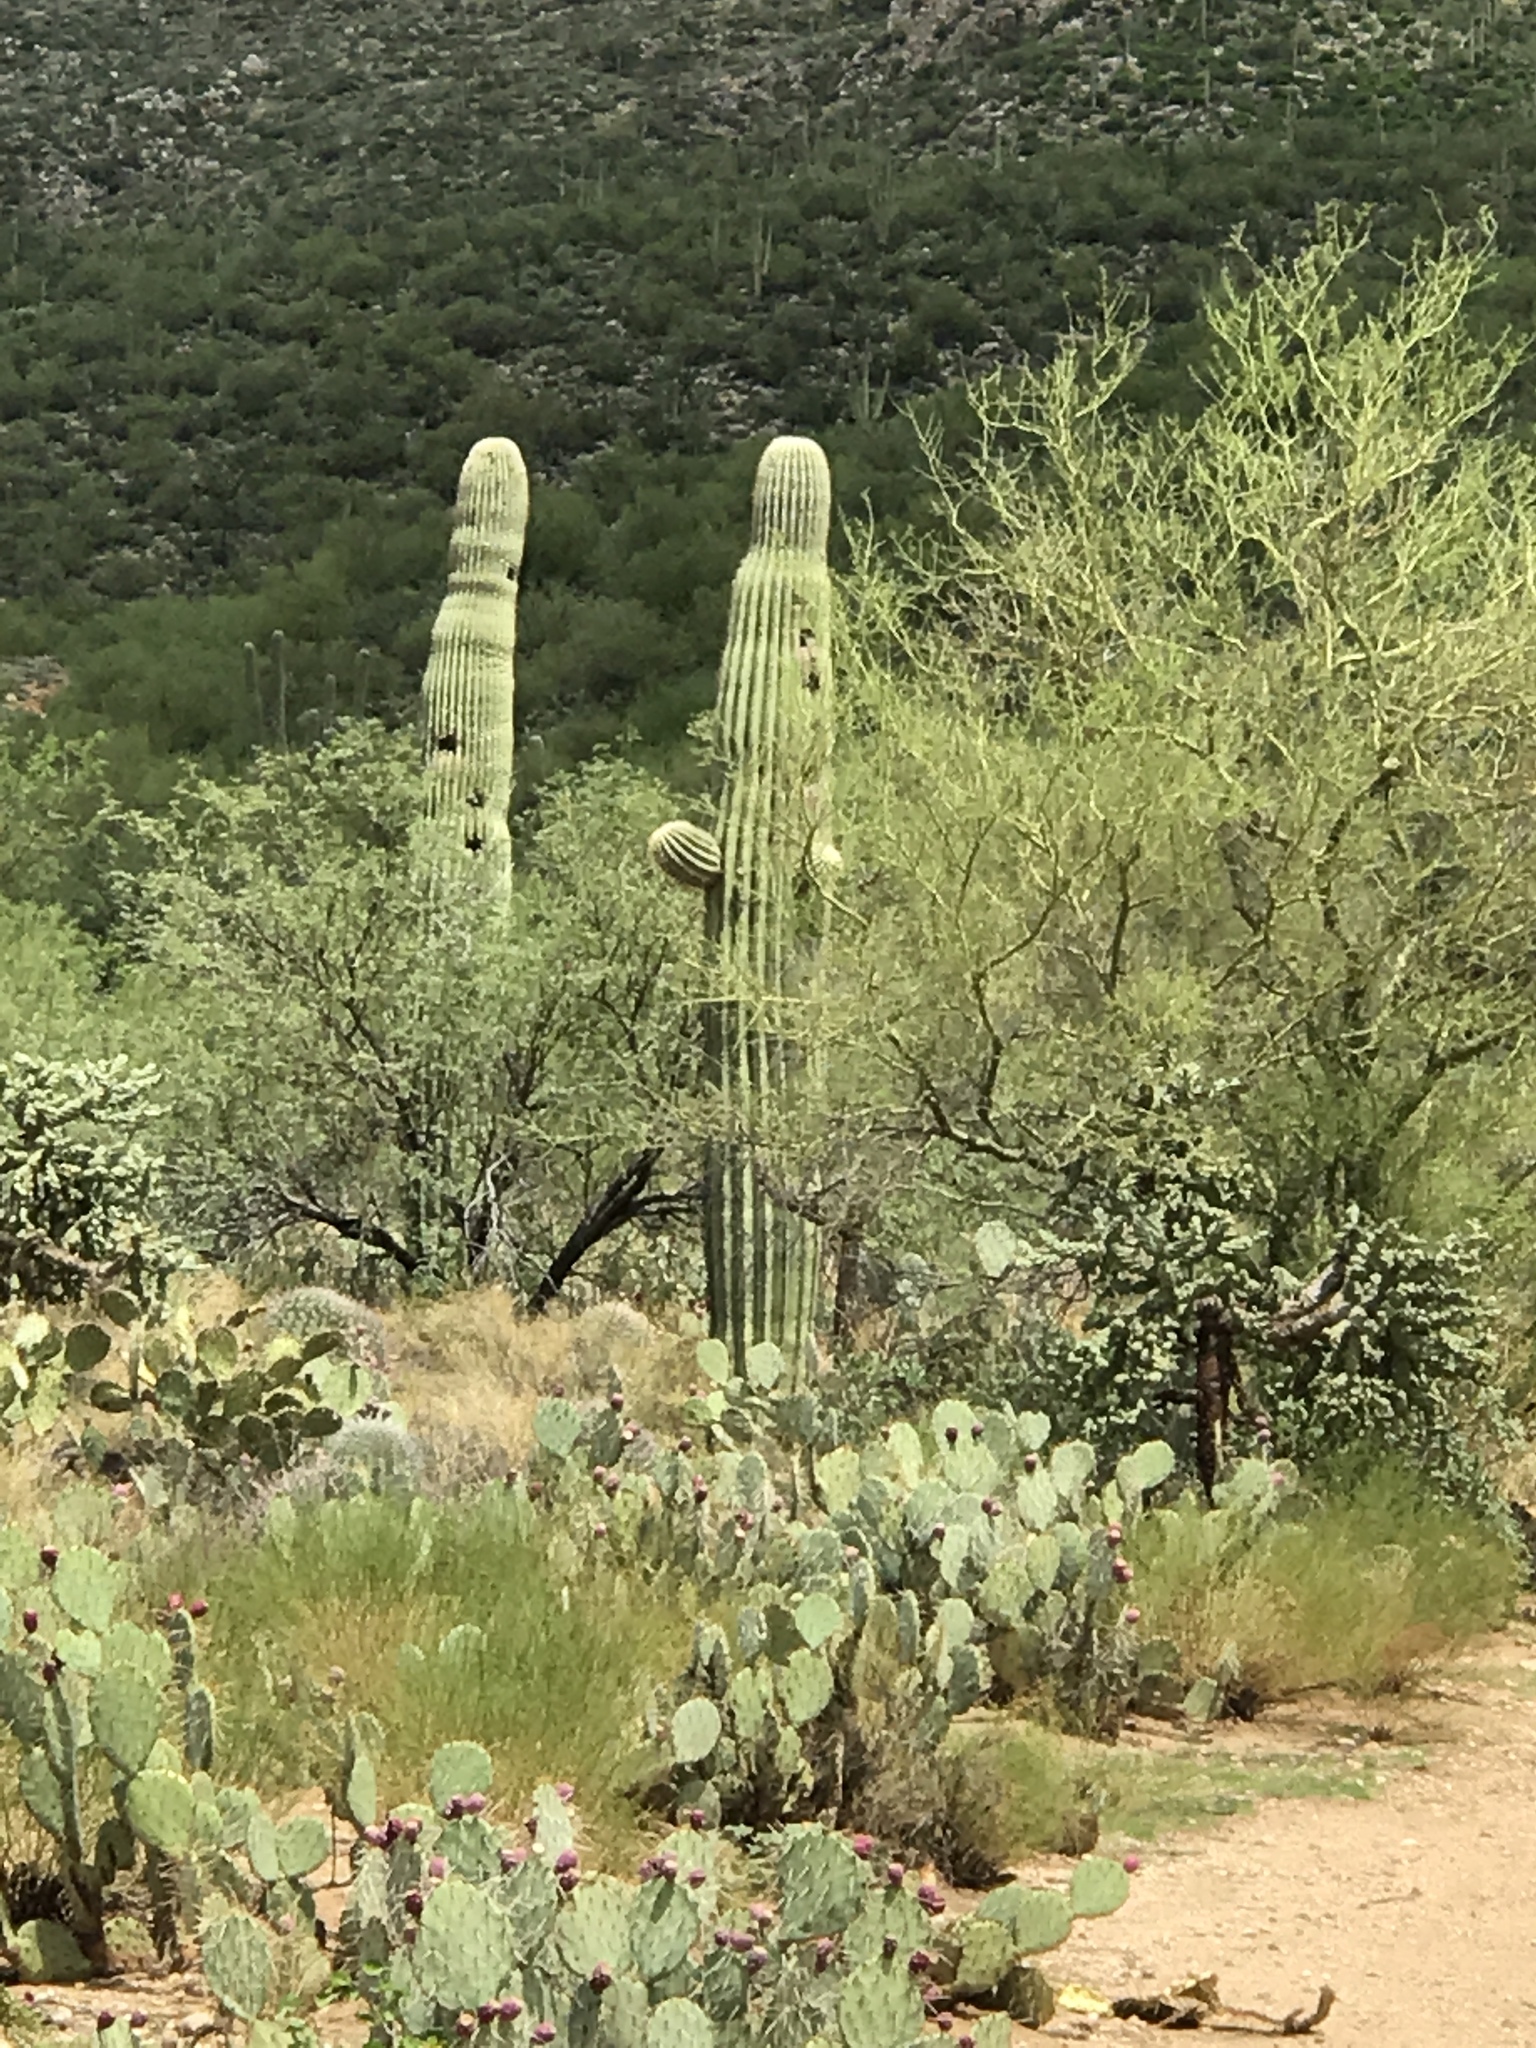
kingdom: Plantae
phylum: Tracheophyta
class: Magnoliopsida
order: Caryophyllales
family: Cactaceae
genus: Carnegiea
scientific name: Carnegiea gigantea
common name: Saguaro
